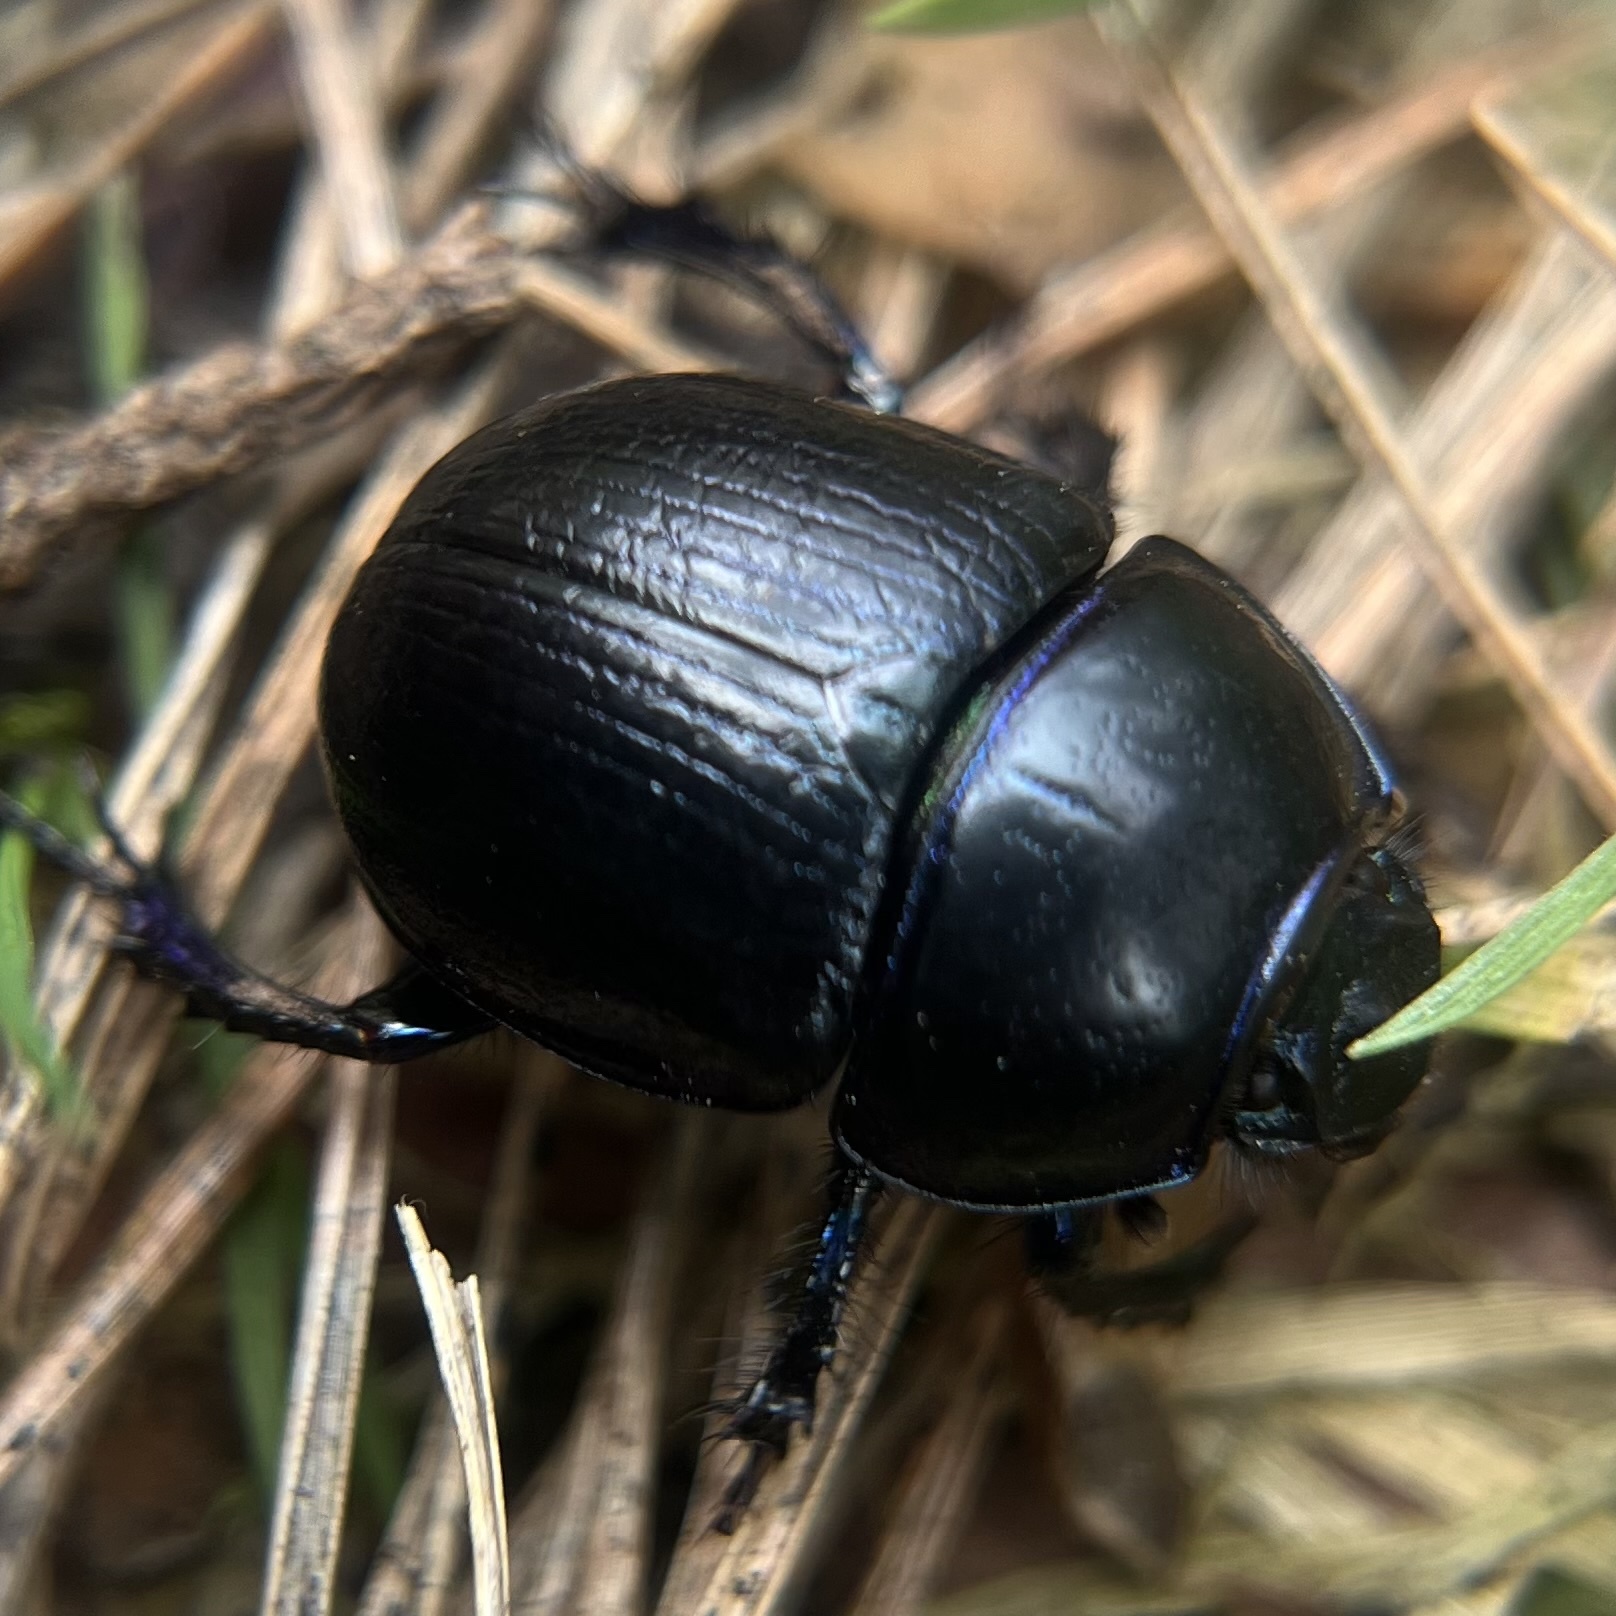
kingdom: Animalia
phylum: Arthropoda
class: Insecta
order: Coleoptera
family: Geotrupidae
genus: Anoplotrupes
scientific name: Anoplotrupes stercorosus
